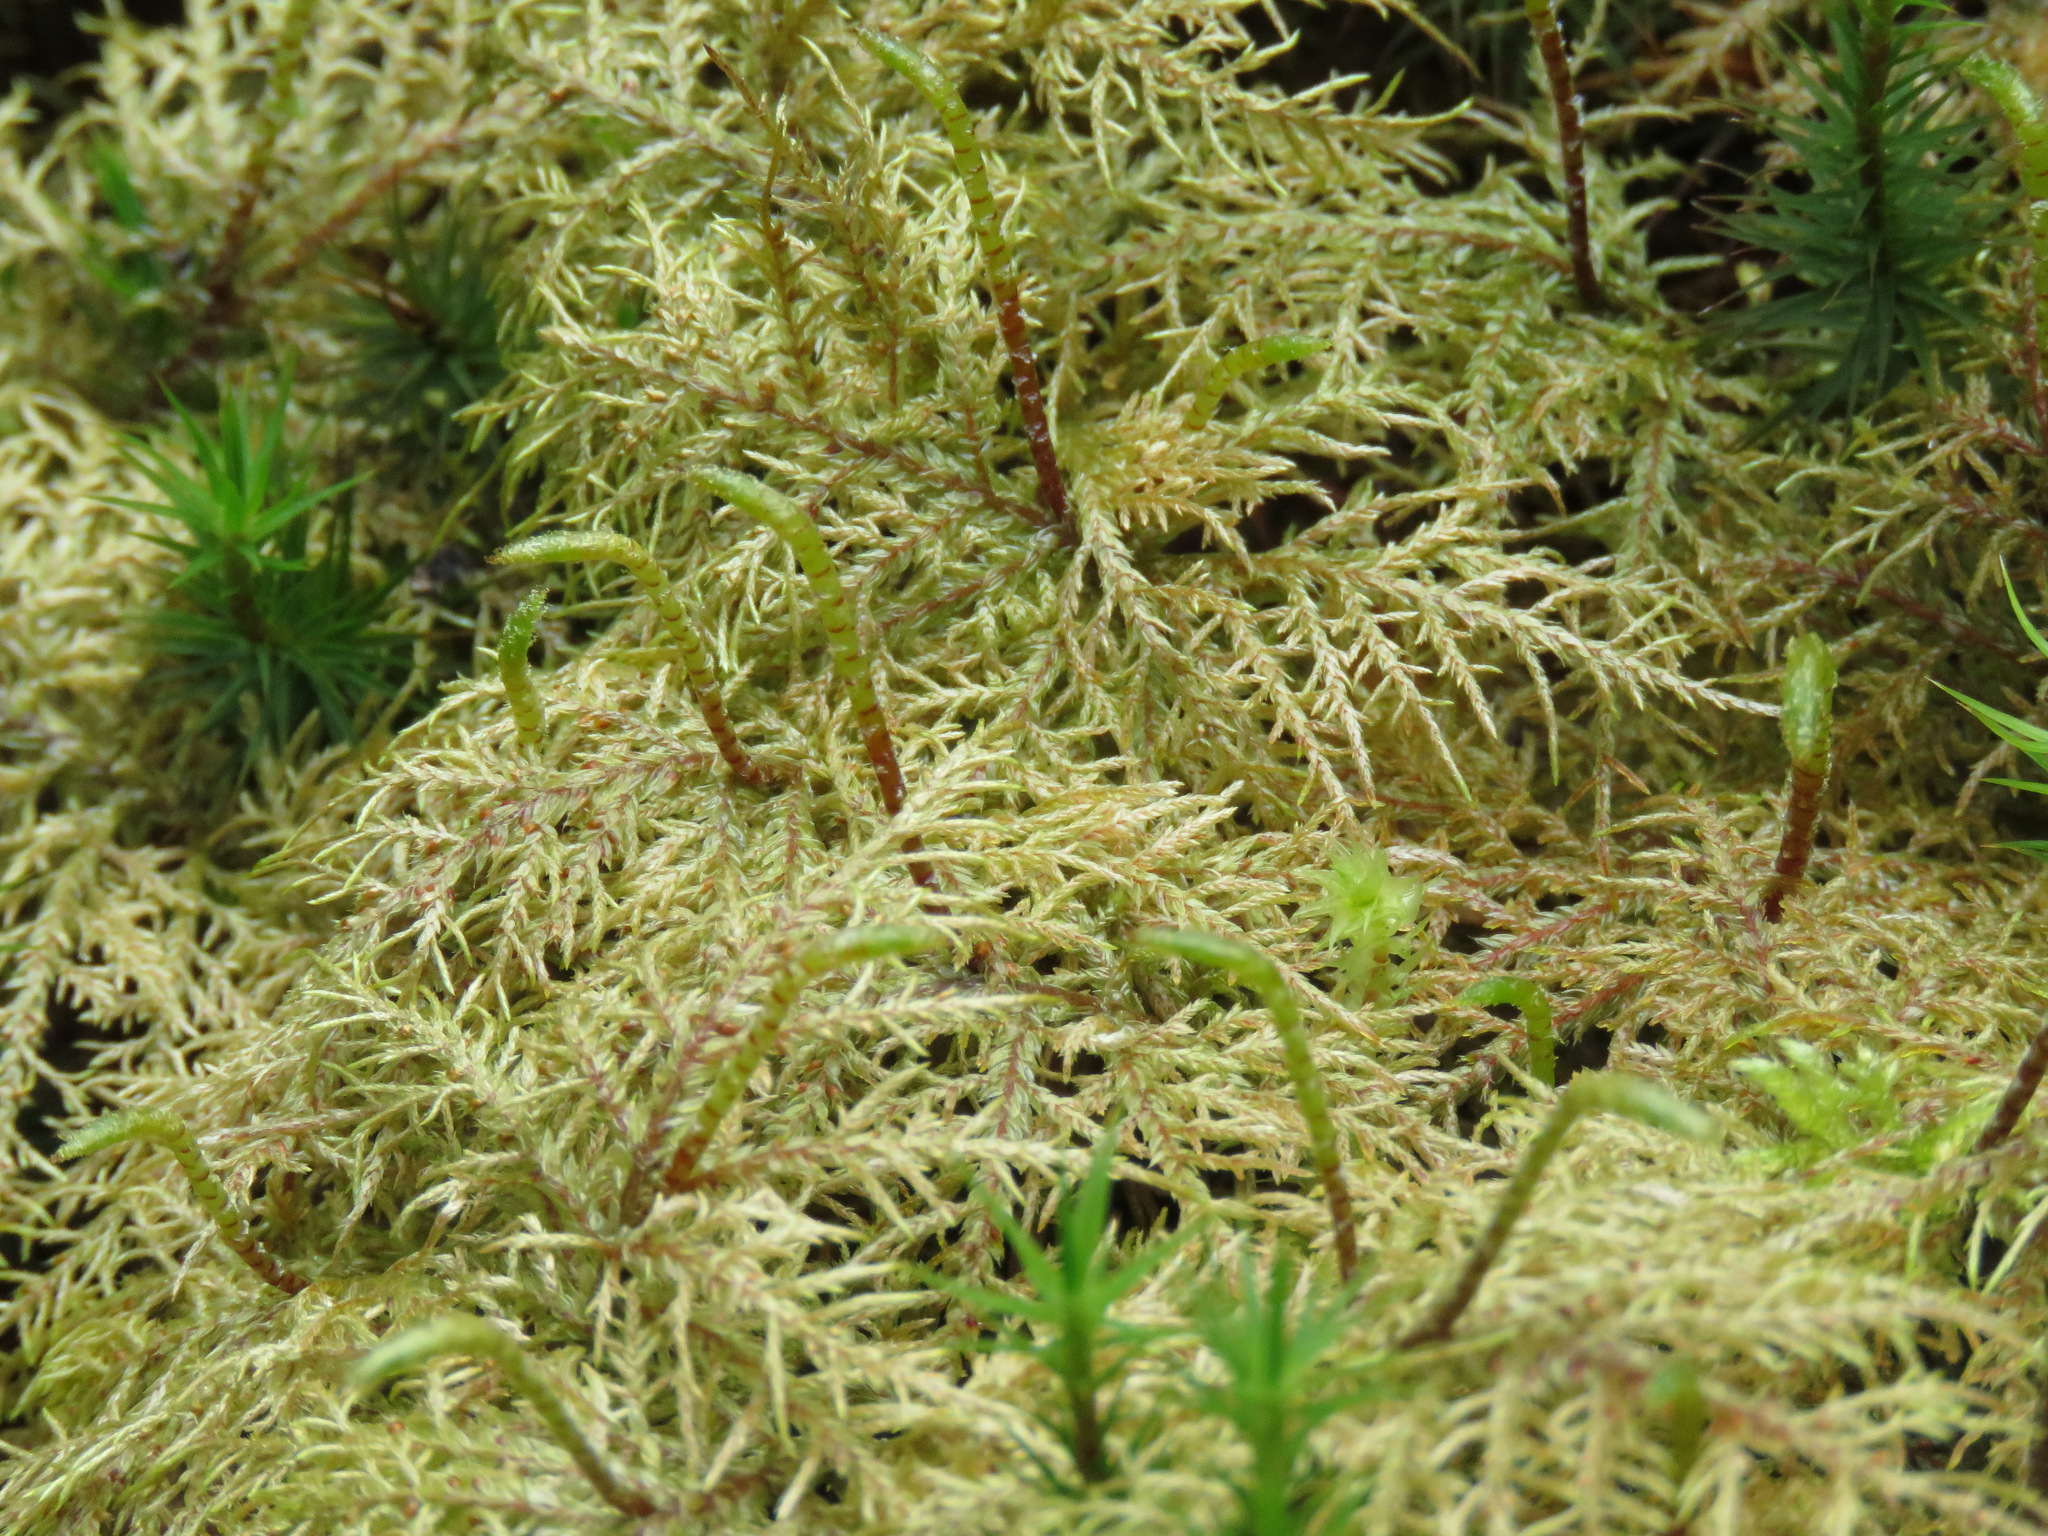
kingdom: Plantae
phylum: Bryophyta
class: Bryopsida
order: Hypnales
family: Hylocomiaceae
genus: Hylocomium
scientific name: Hylocomium splendens
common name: Stairstep moss
